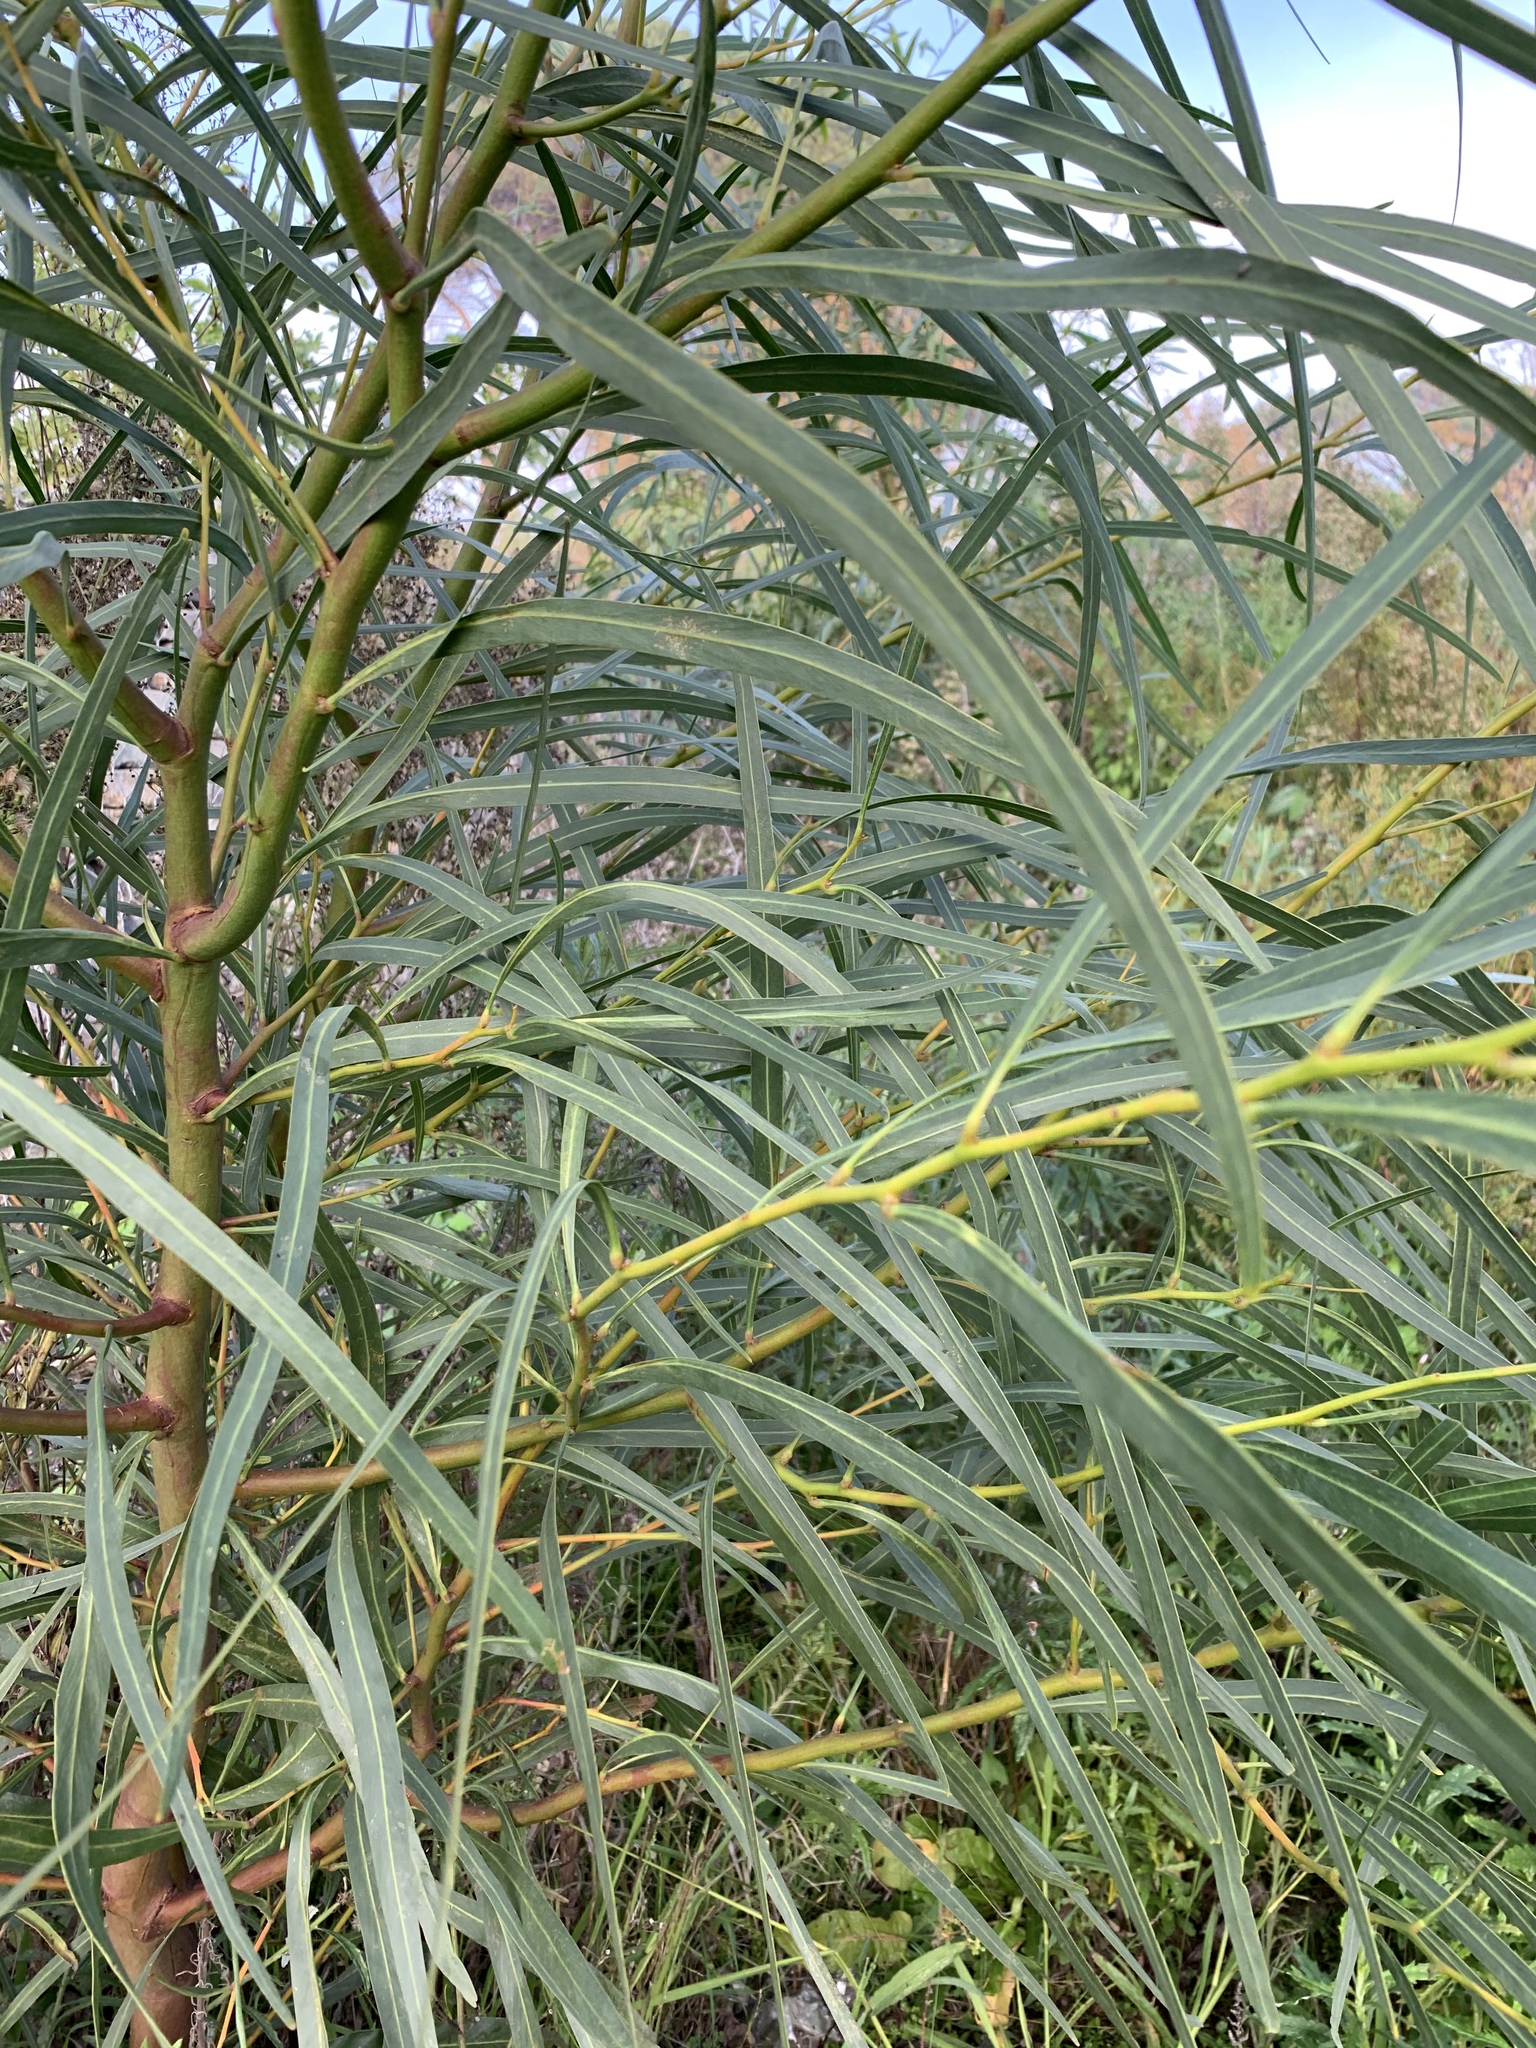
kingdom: Plantae
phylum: Tracheophyta
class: Magnoliopsida
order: Fabales
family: Fabaceae
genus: Acacia
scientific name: Acacia saligna
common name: Orange wattle
